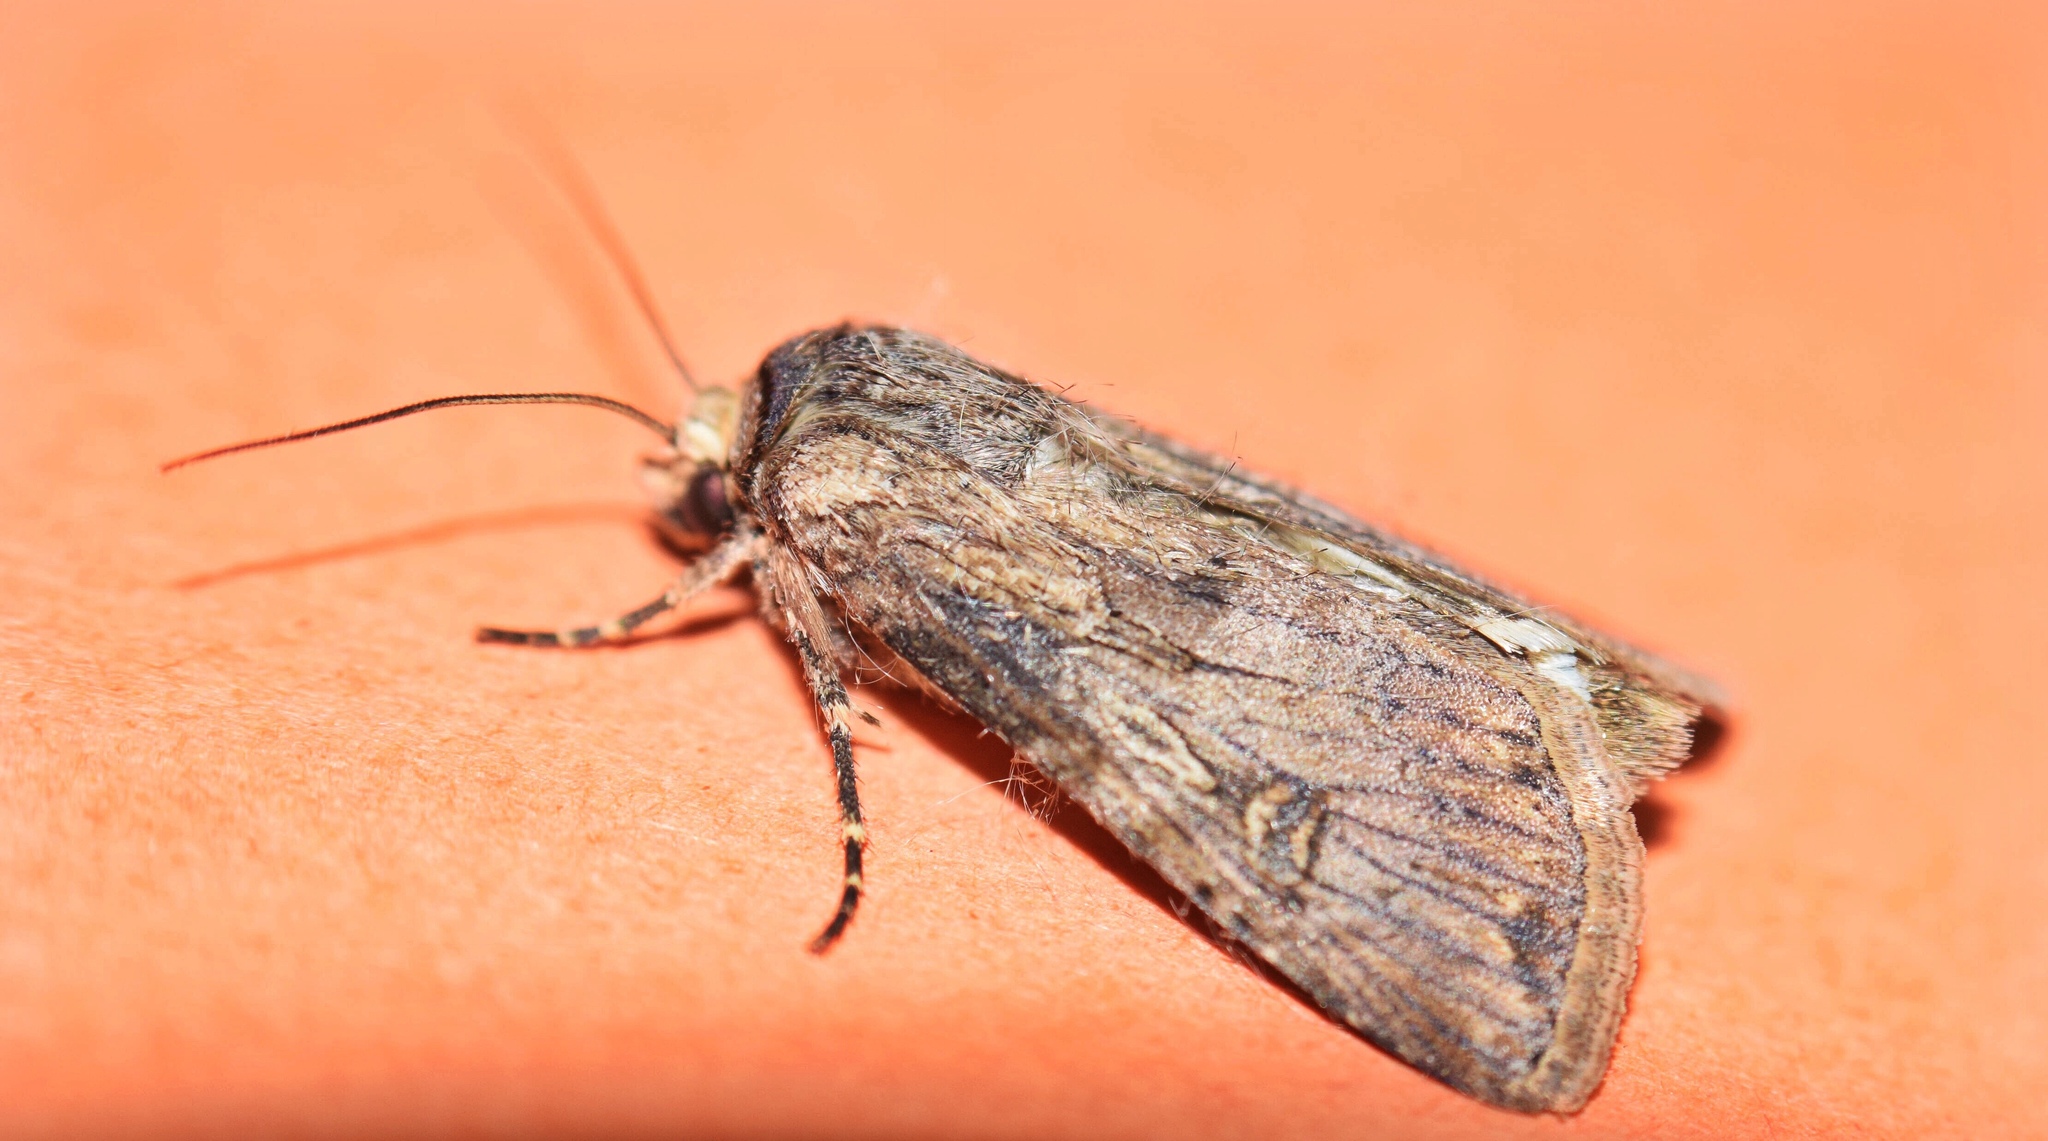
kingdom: Animalia
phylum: Arthropoda
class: Insecta
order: Lepidoptera
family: Noctuidae
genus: Agrotis
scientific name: Agrotis segetum
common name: Turnip moth
